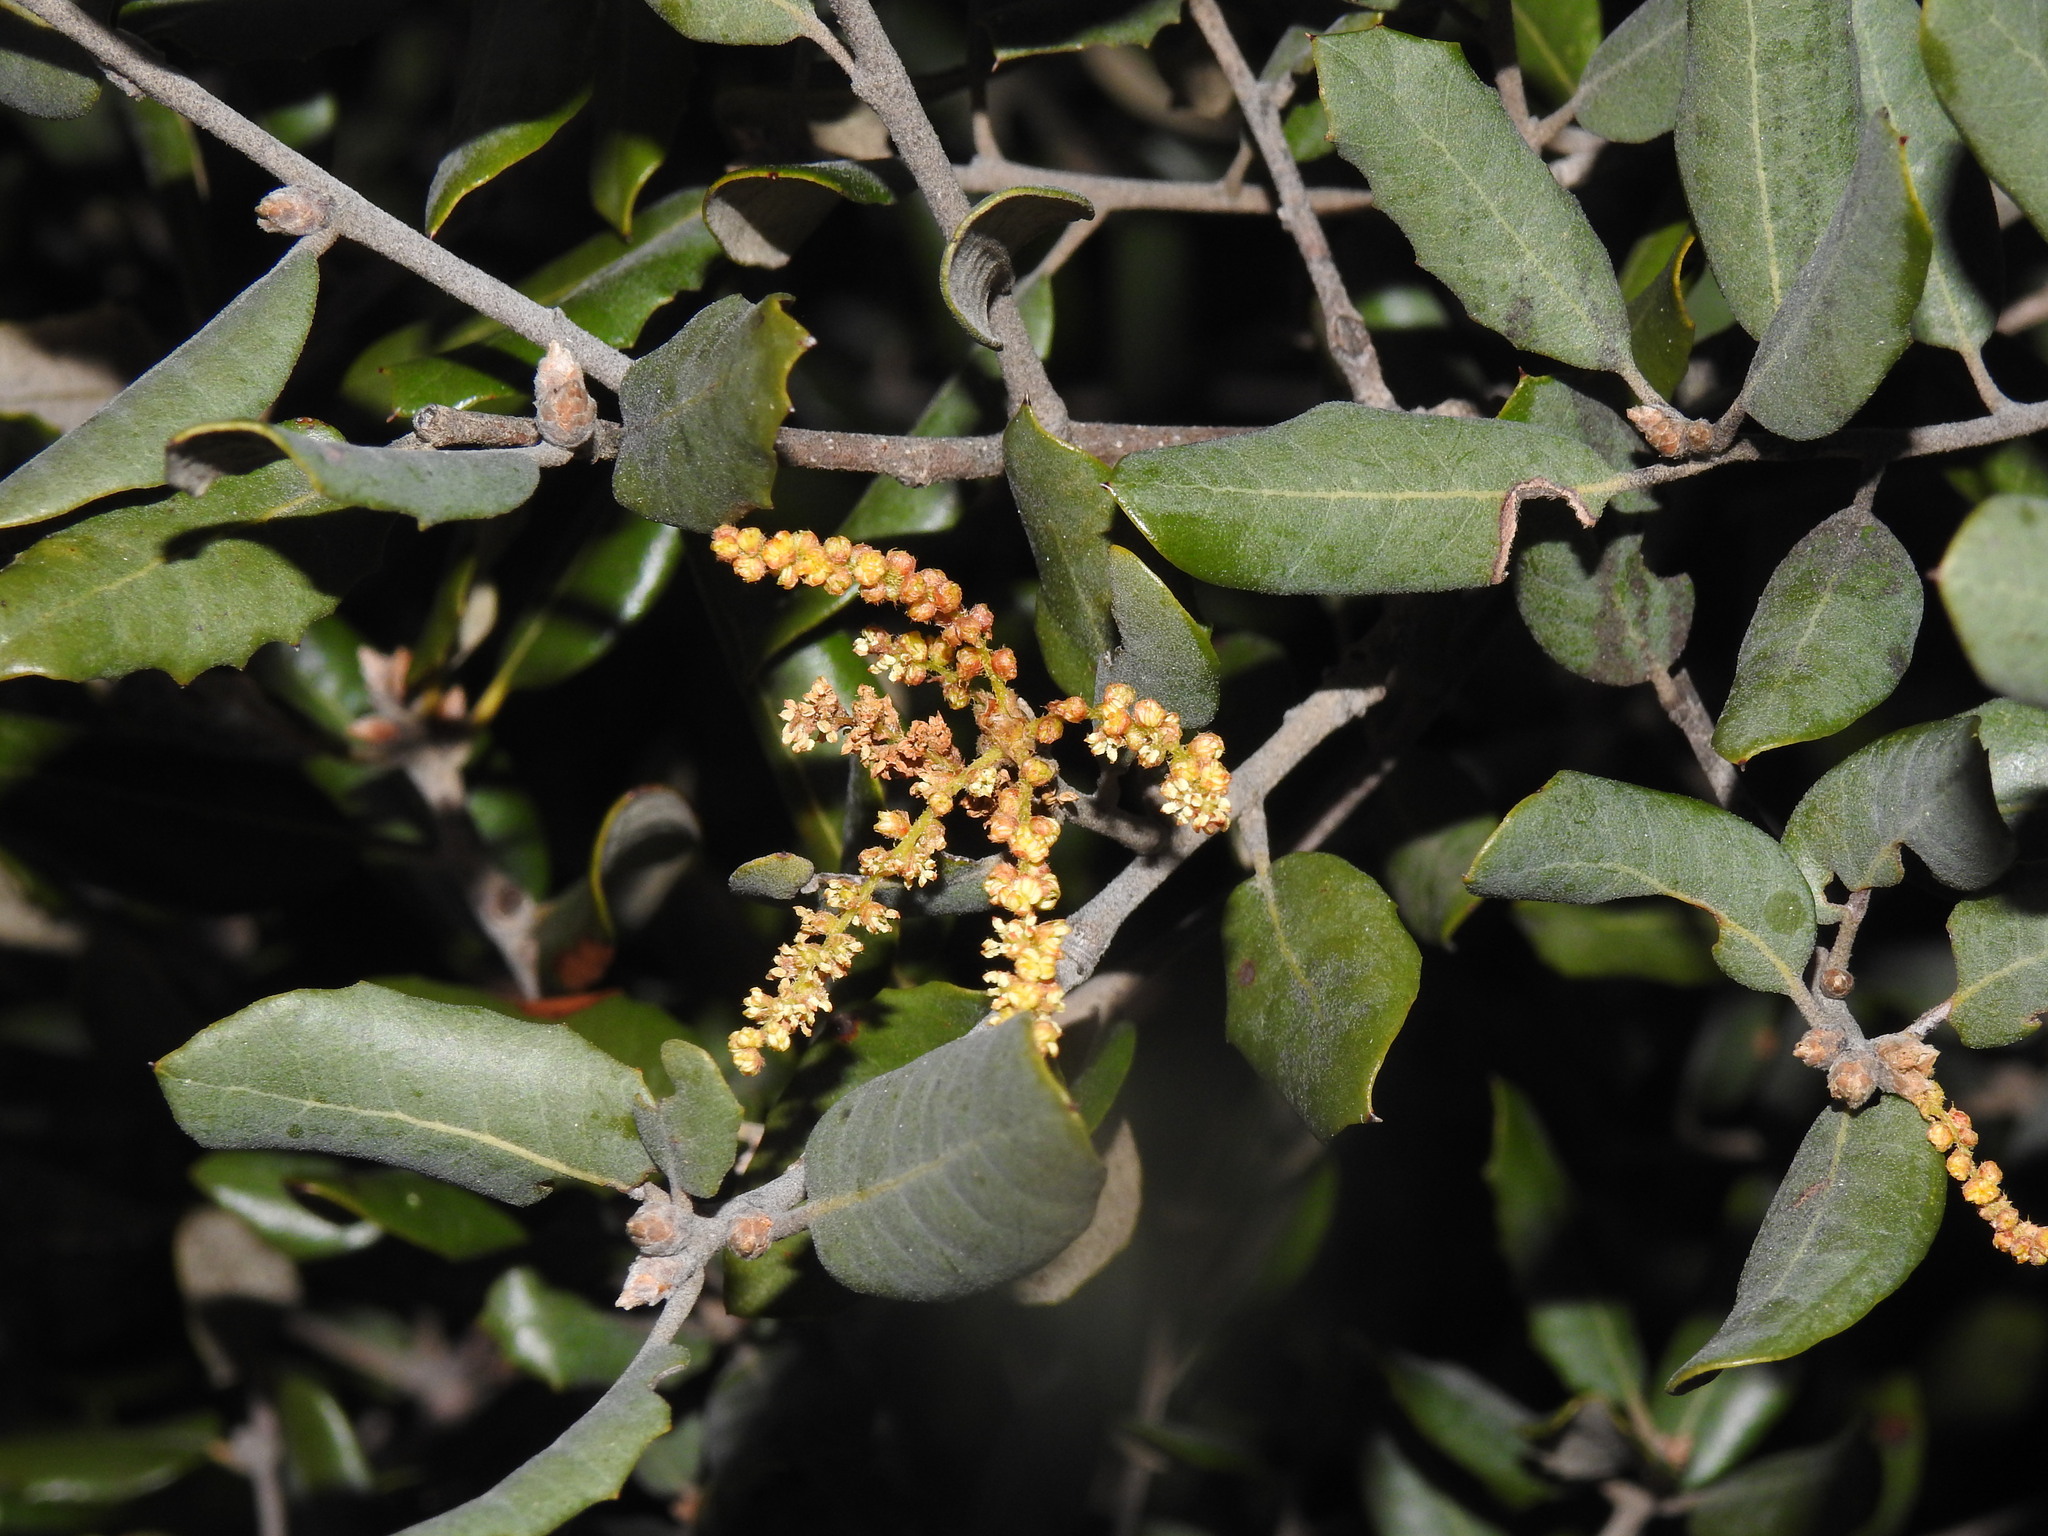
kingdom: Plantae
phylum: Tracheophyta
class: Magnoliopsida
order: Fagales
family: Fagaceae
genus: Quercus
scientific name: Quercus rotundifolia
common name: Holm oak
